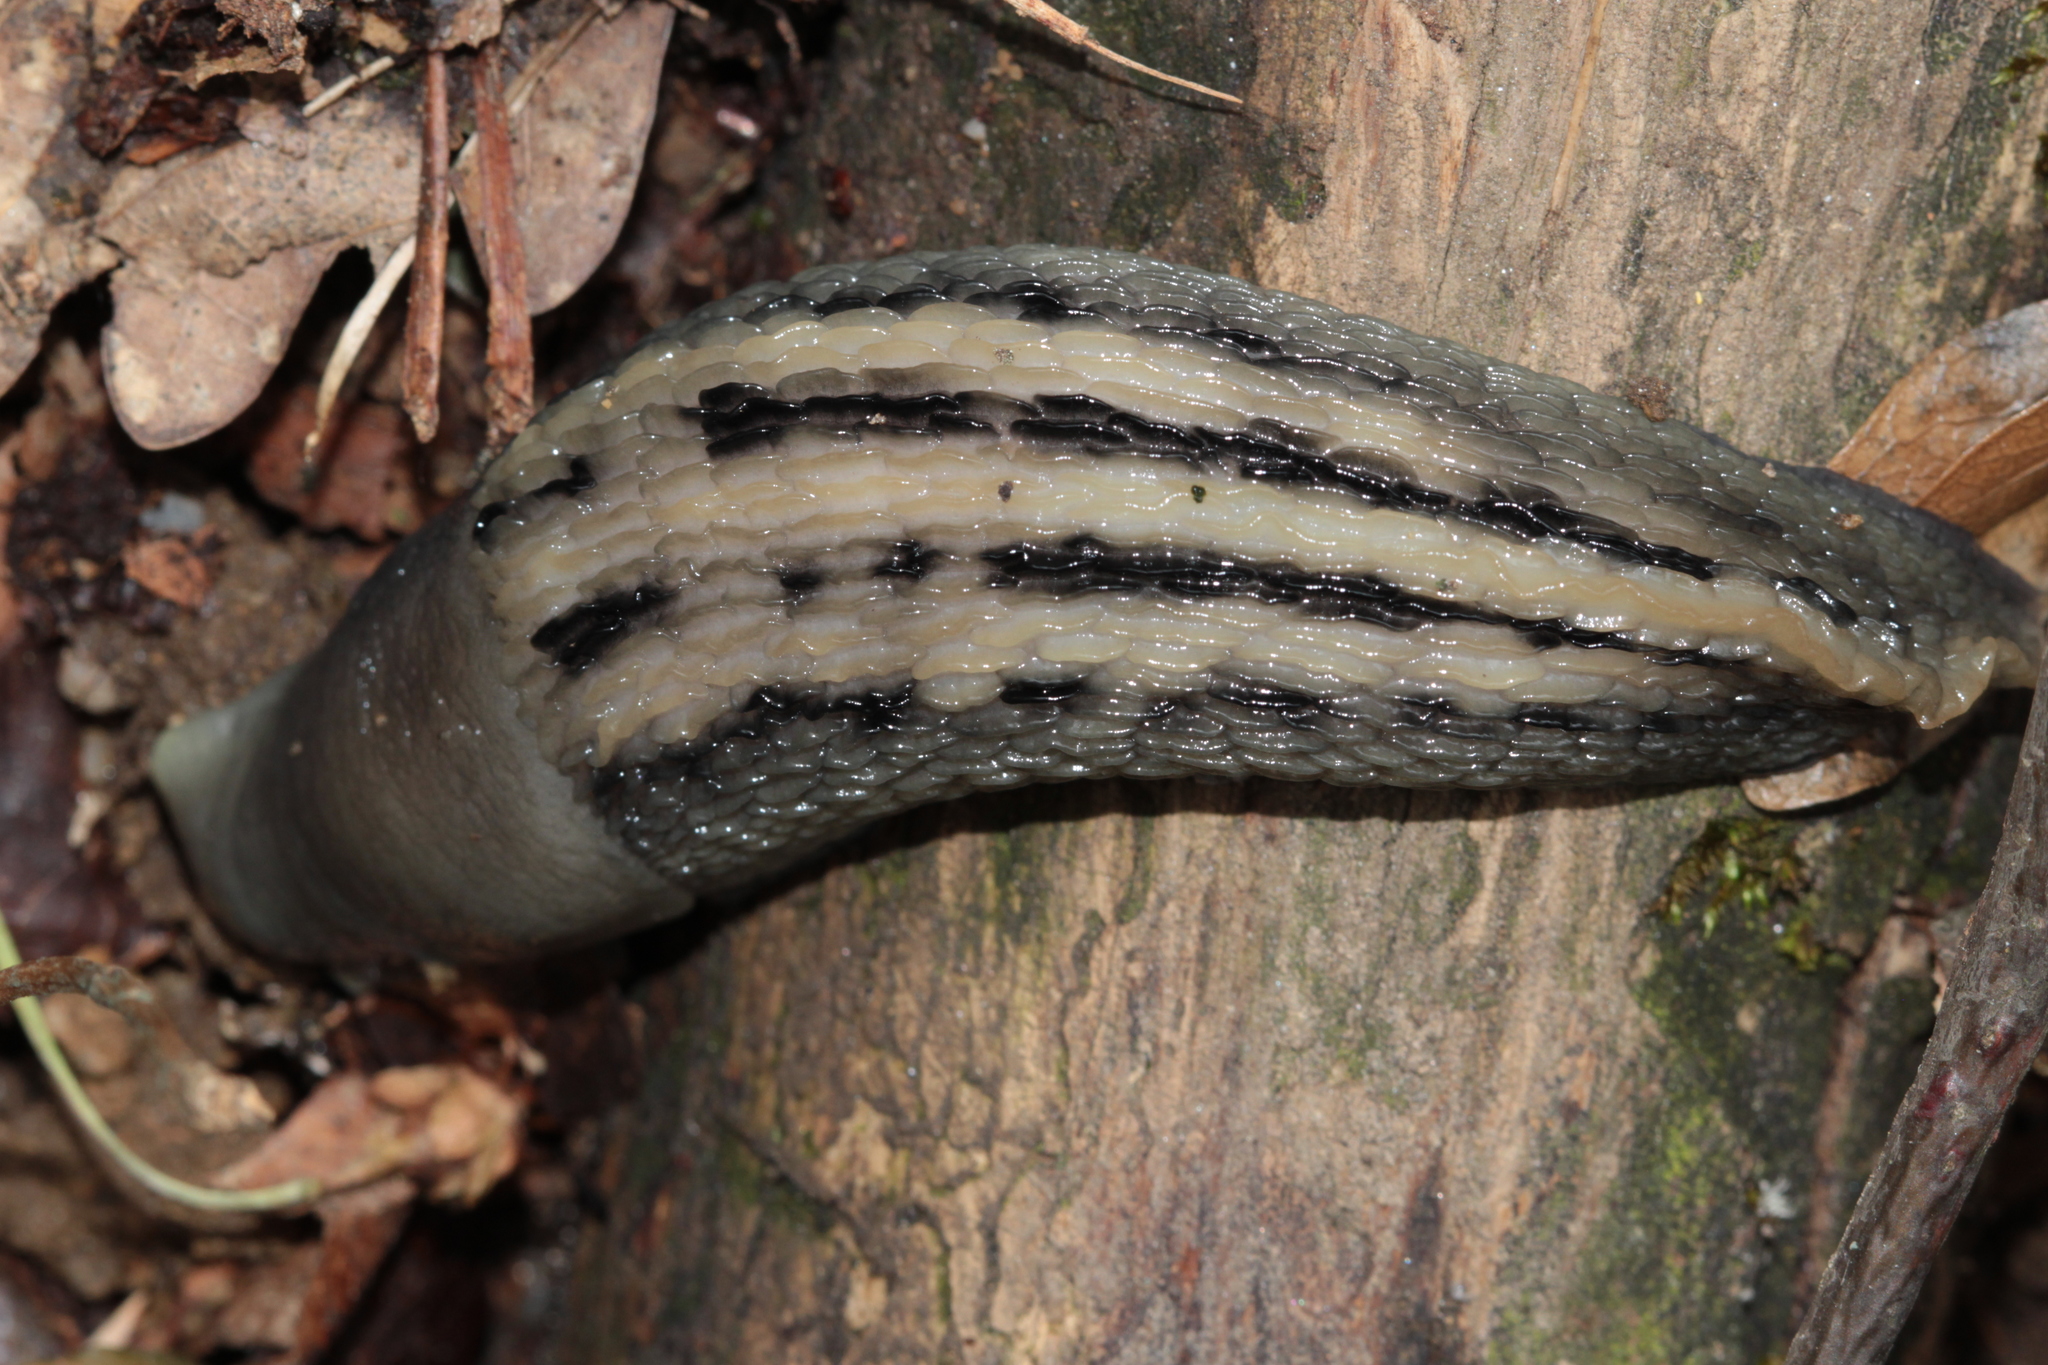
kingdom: Animalia
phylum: Mollusca
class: Gastropoda
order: Stylommatophora
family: Limacidae
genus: Limax
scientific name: Limax cinereoniger
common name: Ash-black slug
